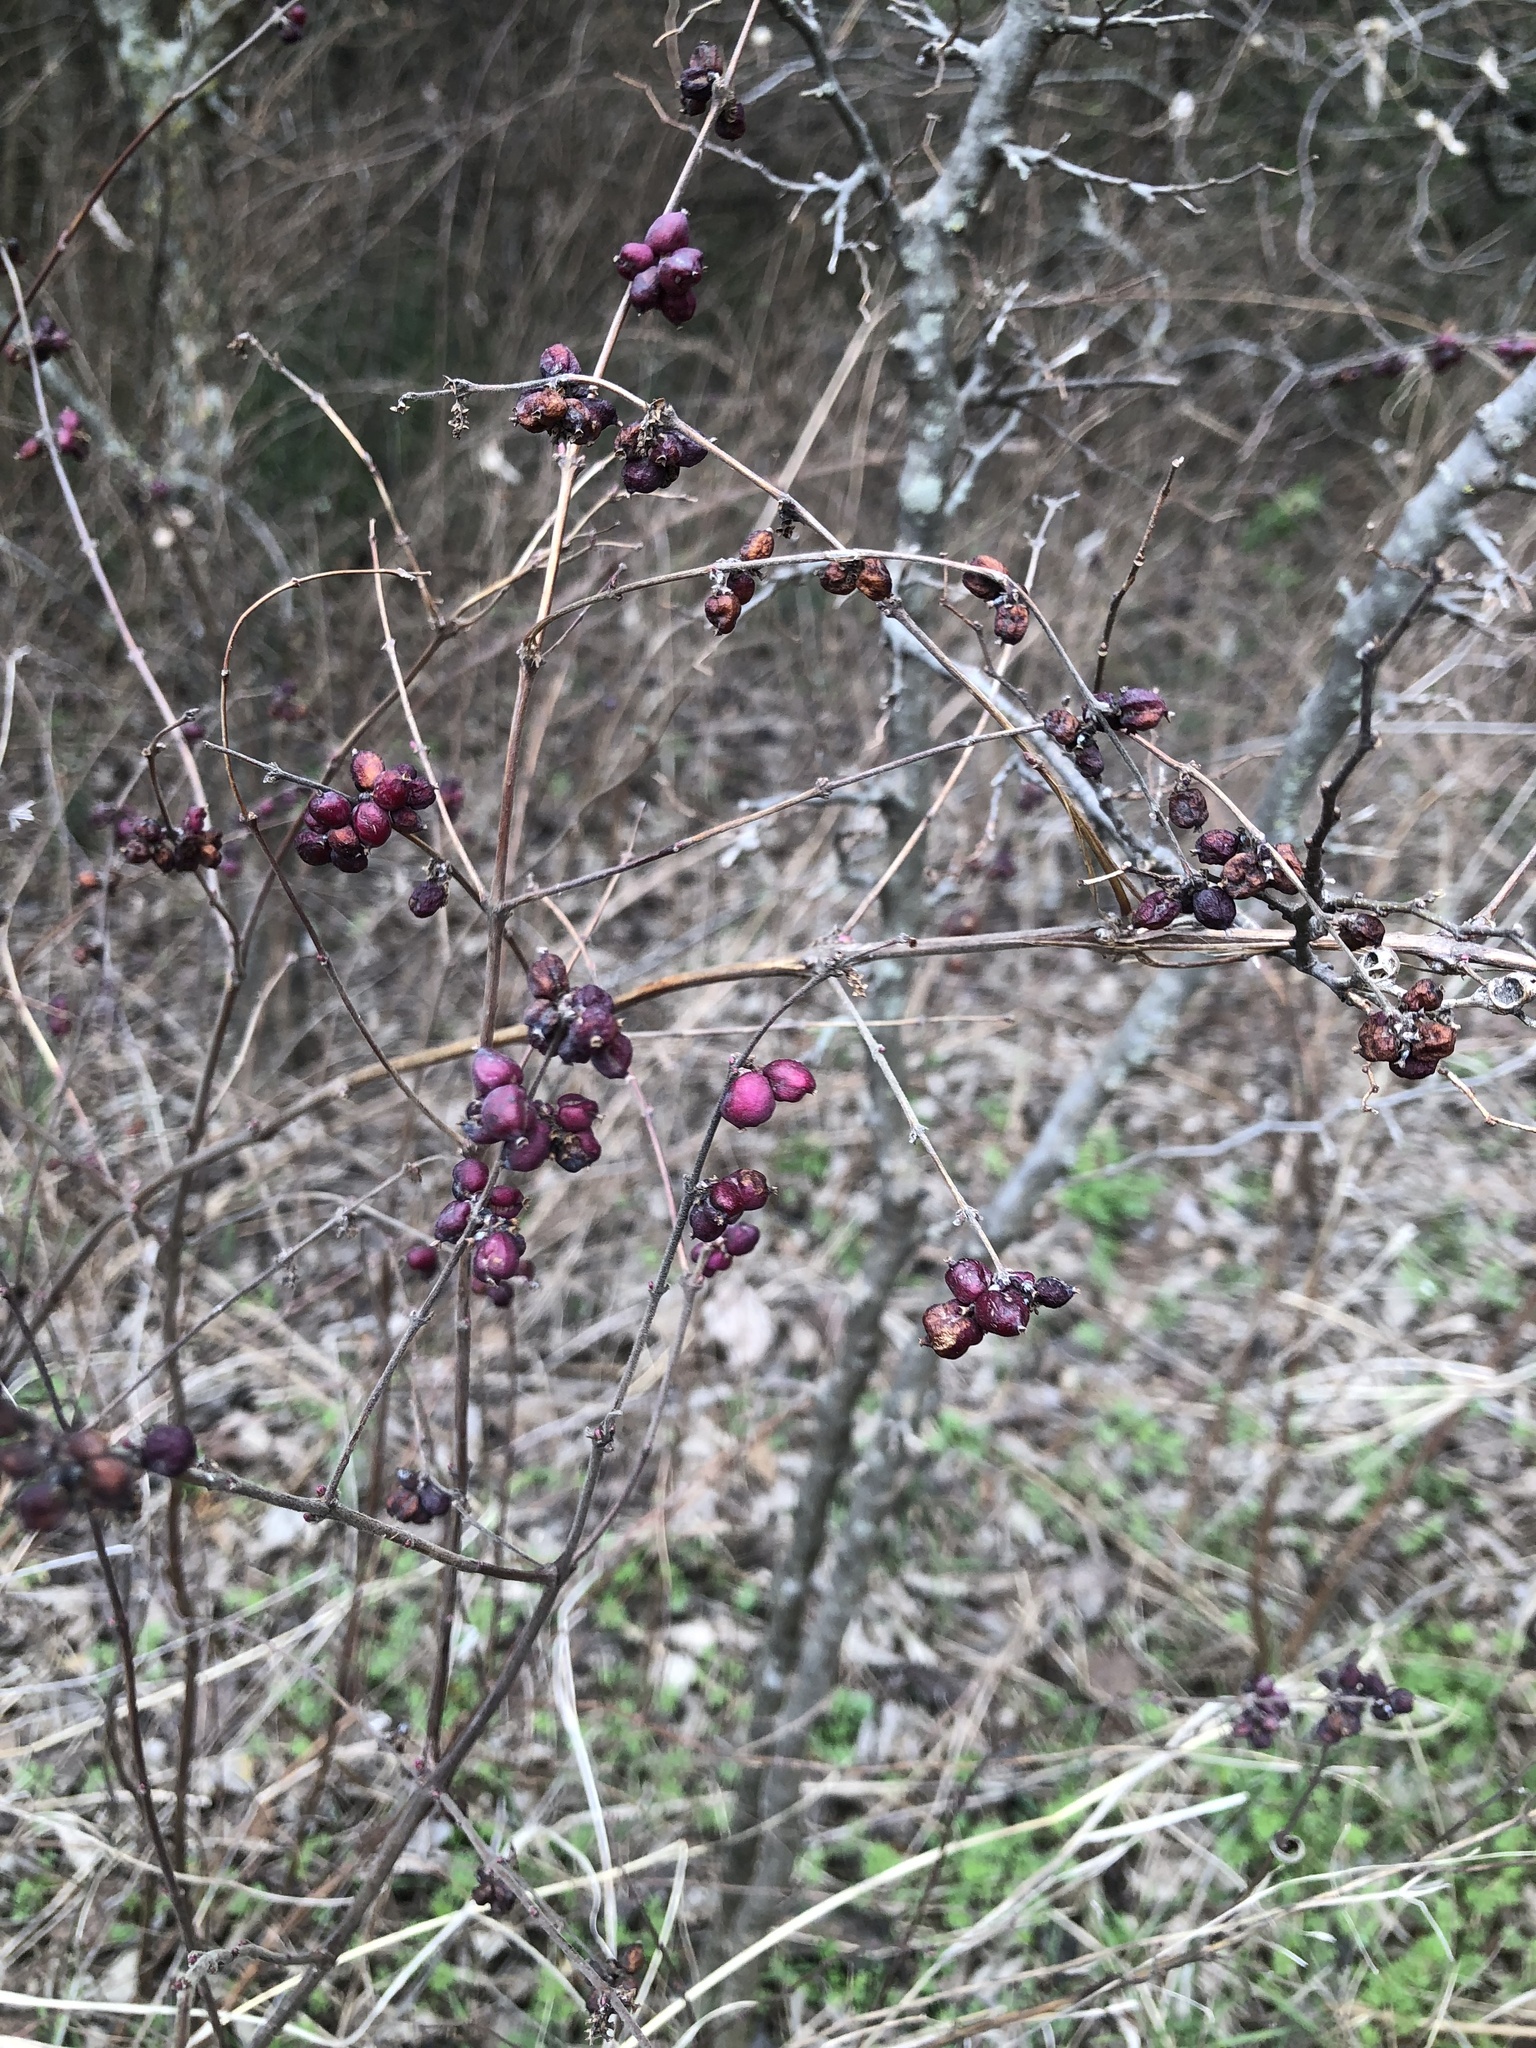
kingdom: Plantae
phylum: Tracheophyta
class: Magnoliopsida
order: Dipsacales
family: Caprifoliaceae
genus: Symphoricarpos
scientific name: Symphoricarpos orbiculatus
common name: Coralberry
